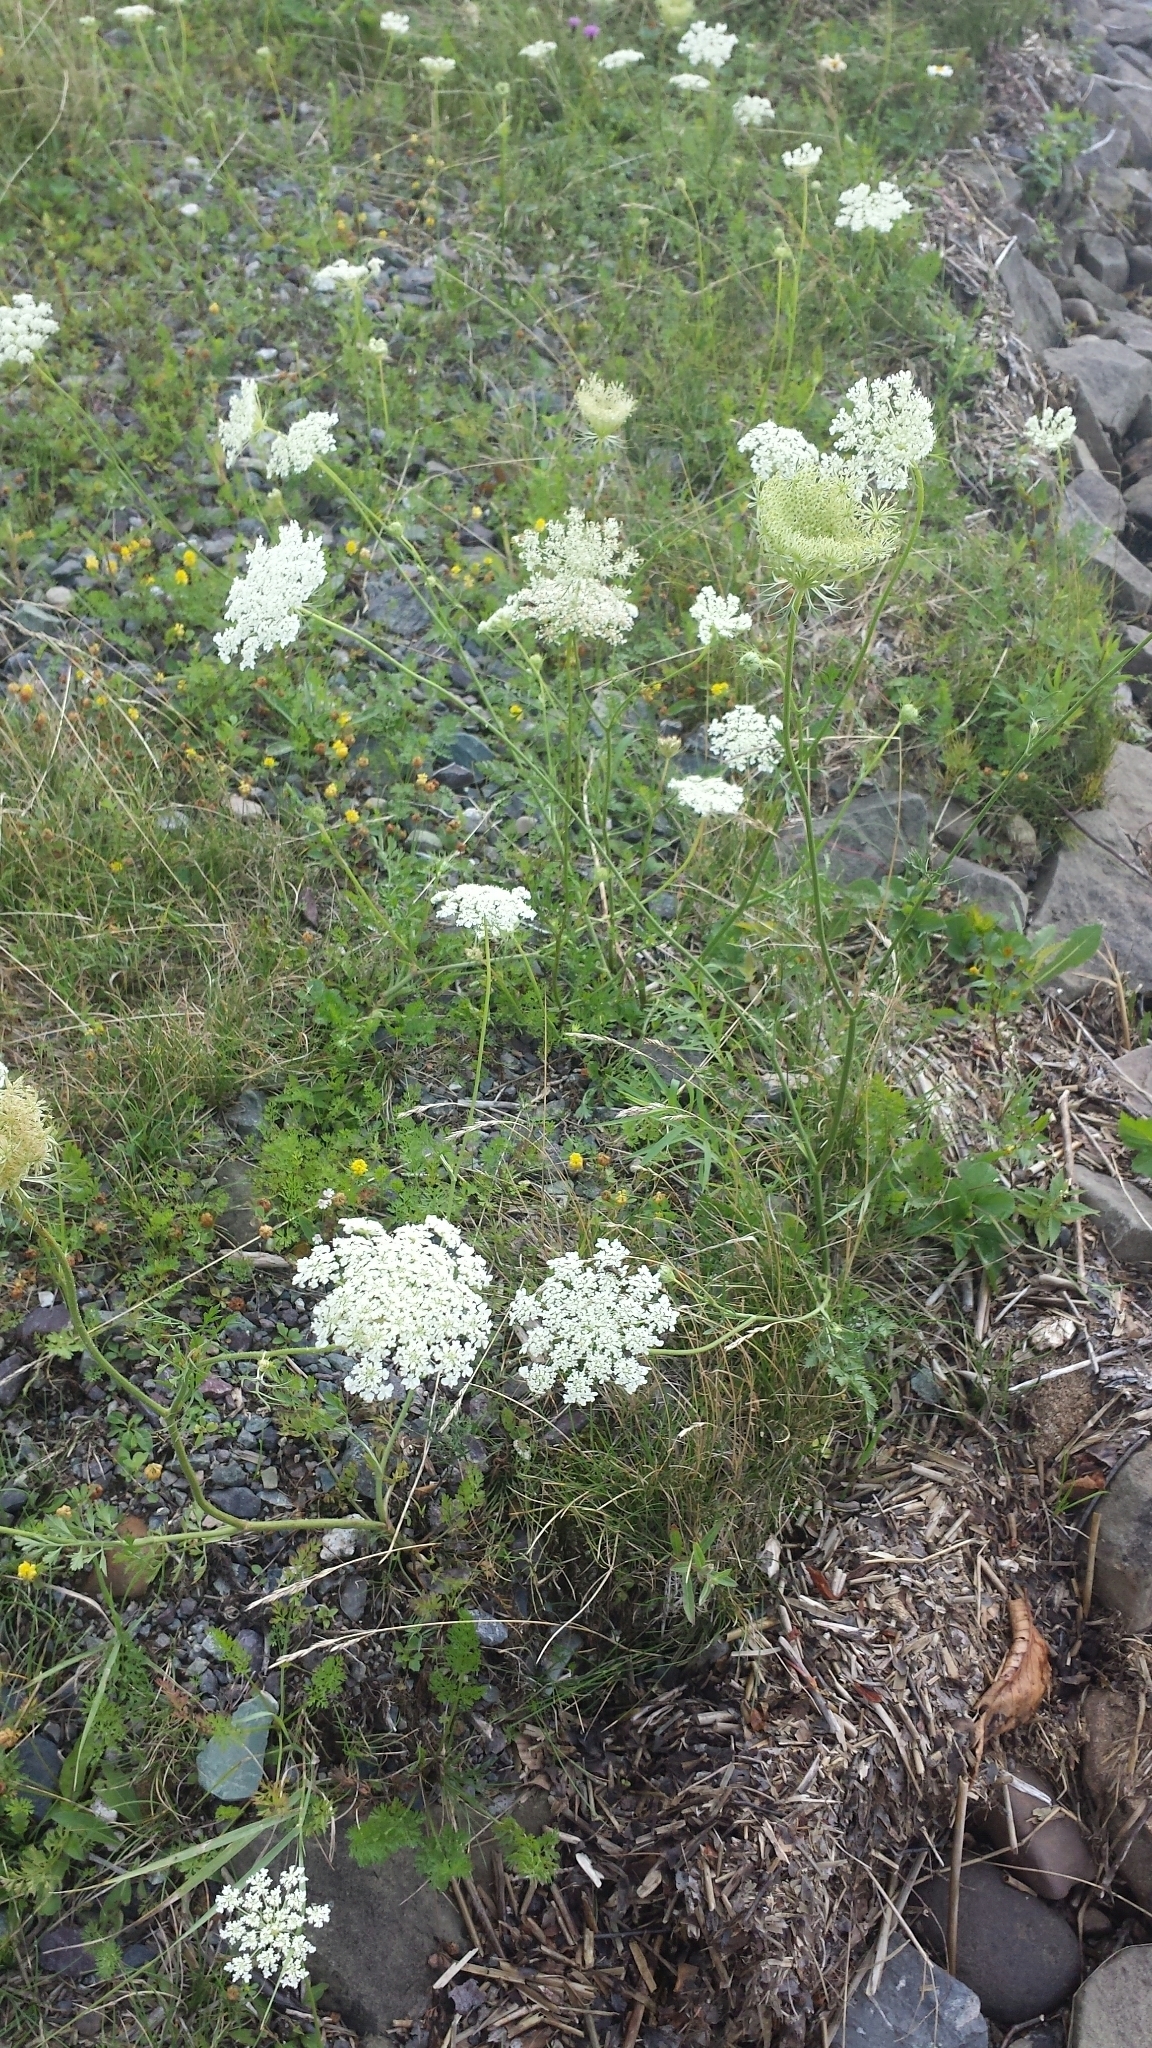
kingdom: Plantae
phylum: Tracheophyta
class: Magnoliopsida
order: Apiales
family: Apiaceae
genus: Daucus
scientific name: Daucus carota
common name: Wild carrot
